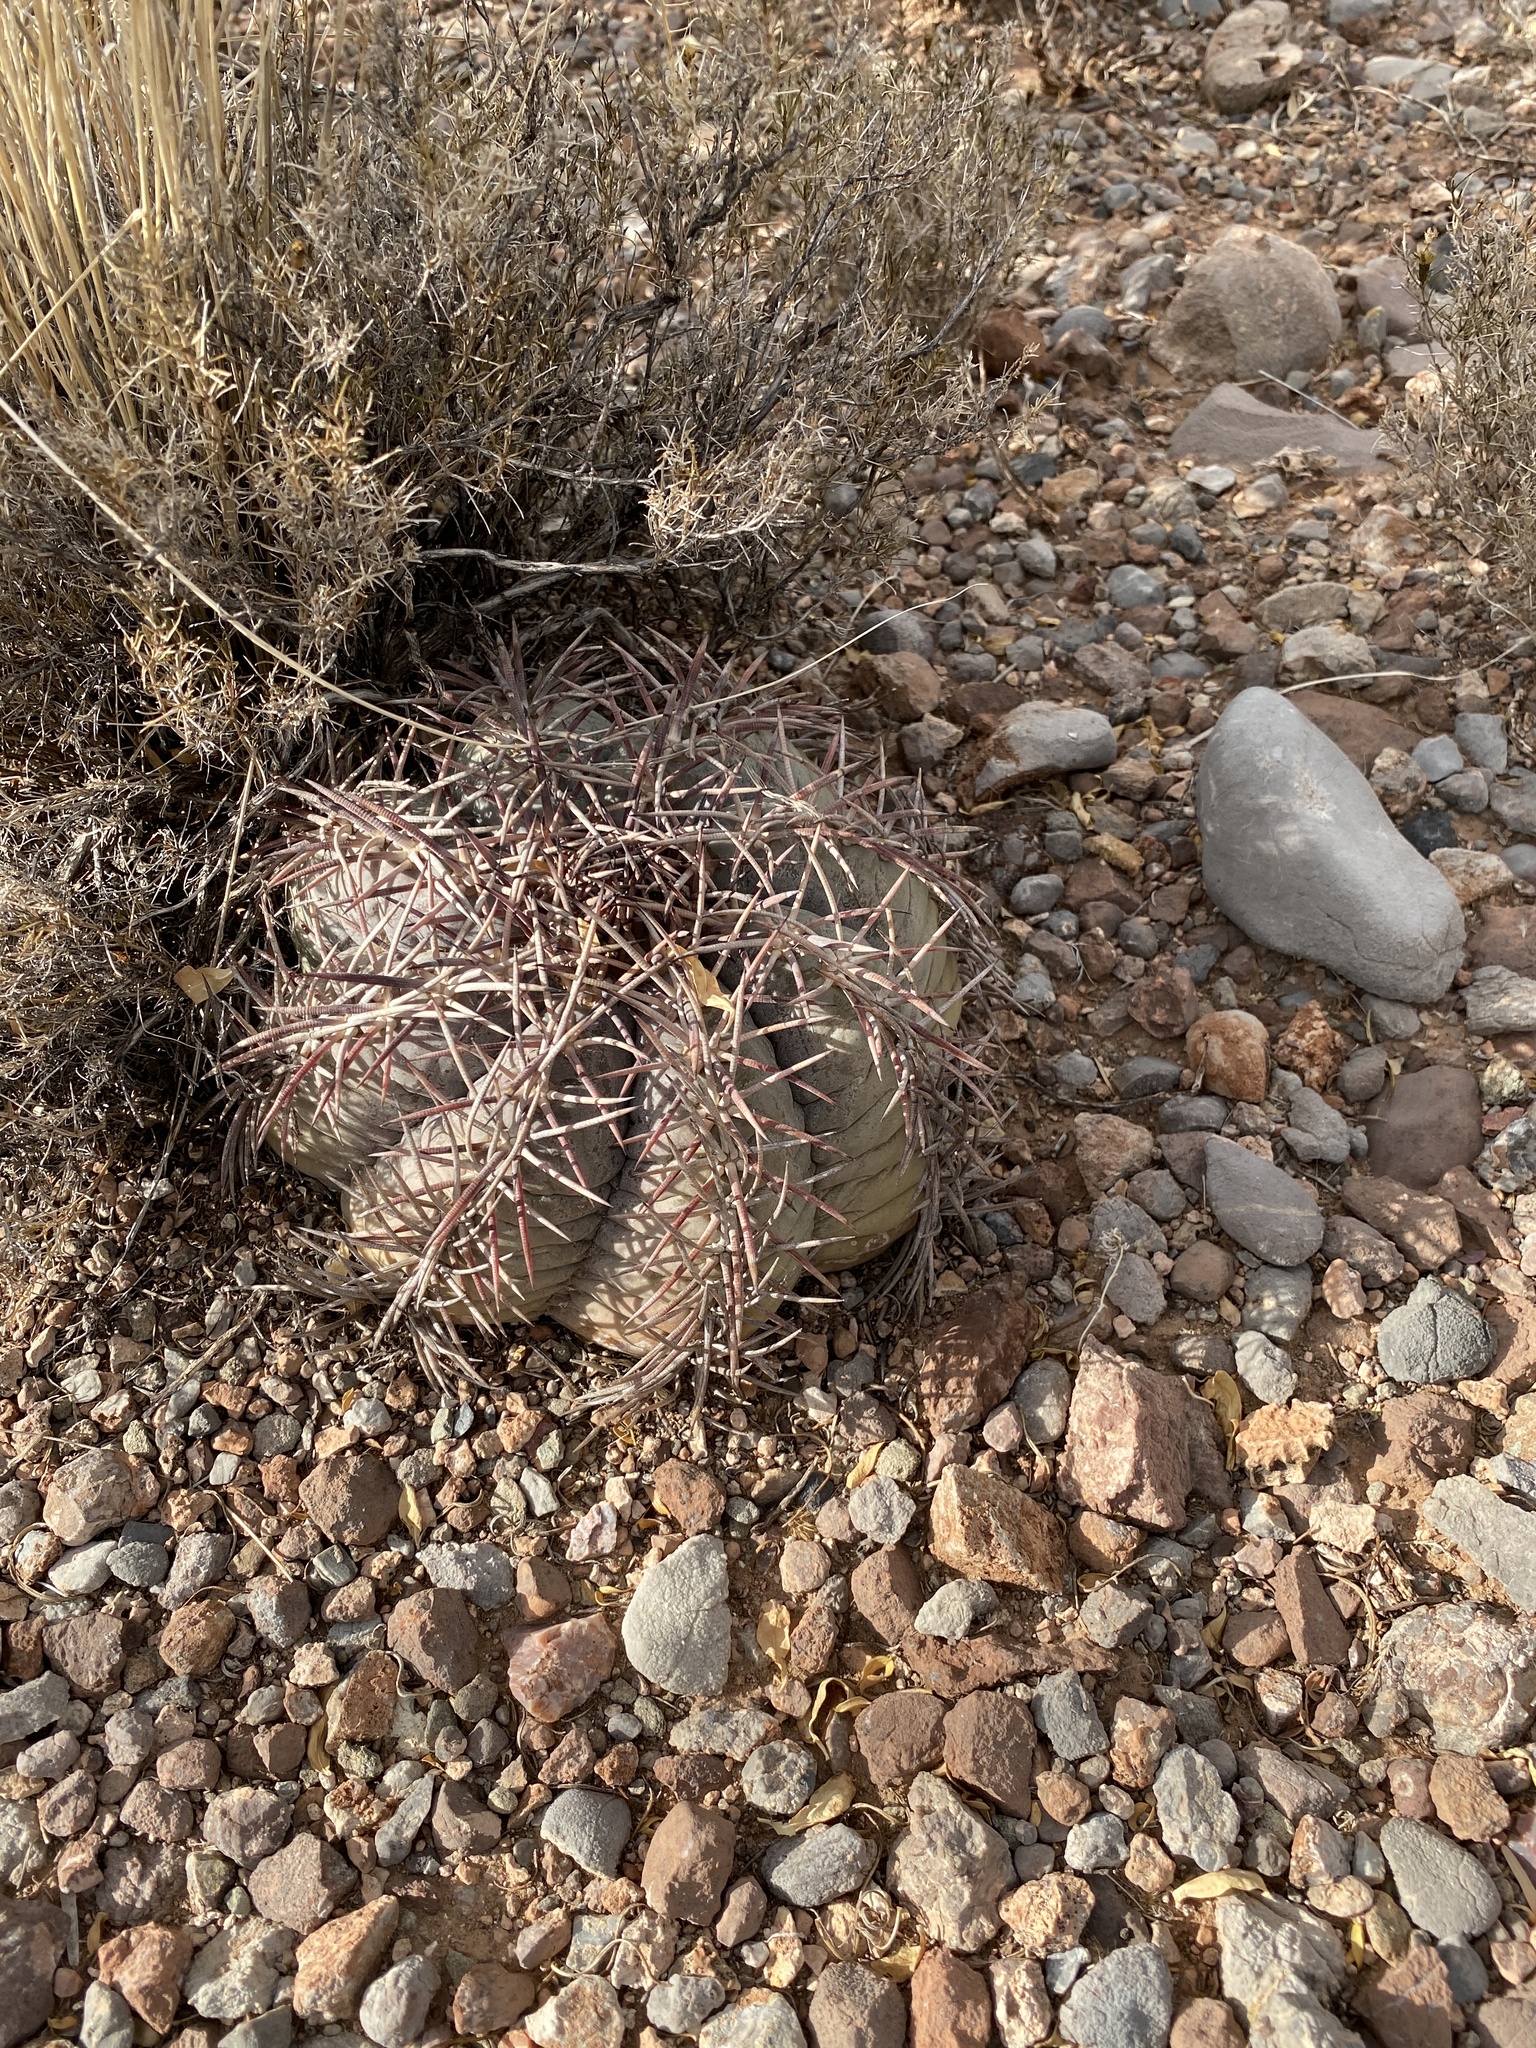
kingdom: Plantae
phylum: Tracheophyta
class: Magnoliopsida
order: Caryophyllales
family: Cactaceae
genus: Echinocactus
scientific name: Echinocactus horizonthalonius
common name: Devilshead
